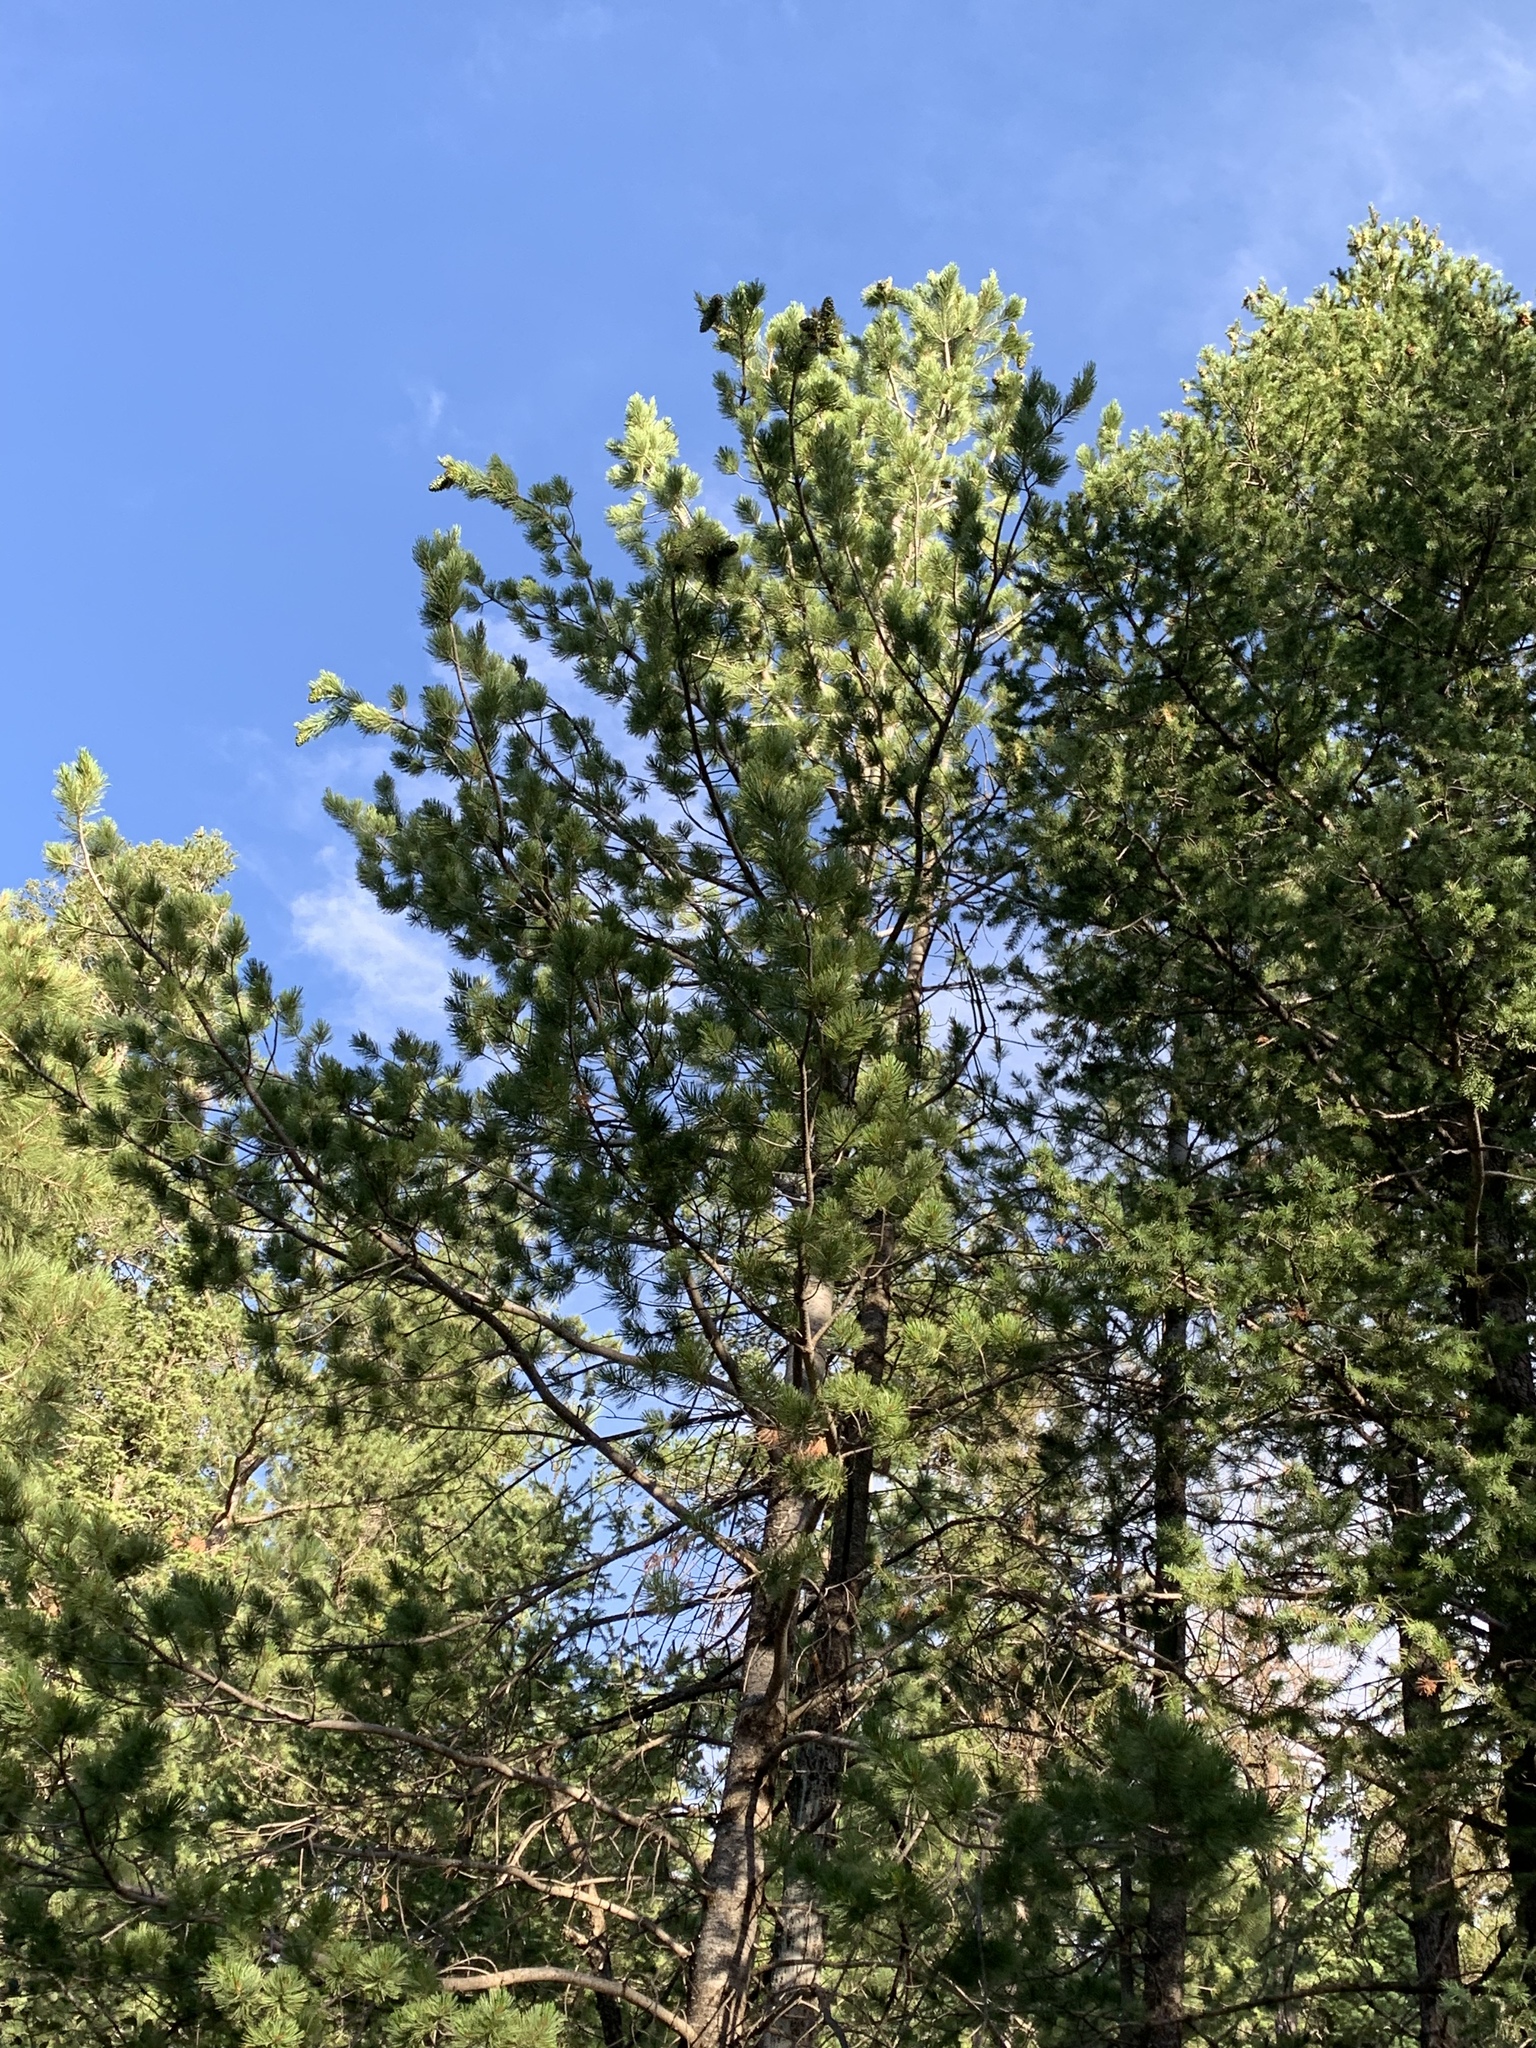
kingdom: Plantae
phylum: Tracheophyta
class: Pinopsida
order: Pinales
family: Pinaceae
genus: Pinus
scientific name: Pinus strobiformis
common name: Southwestern white pine
